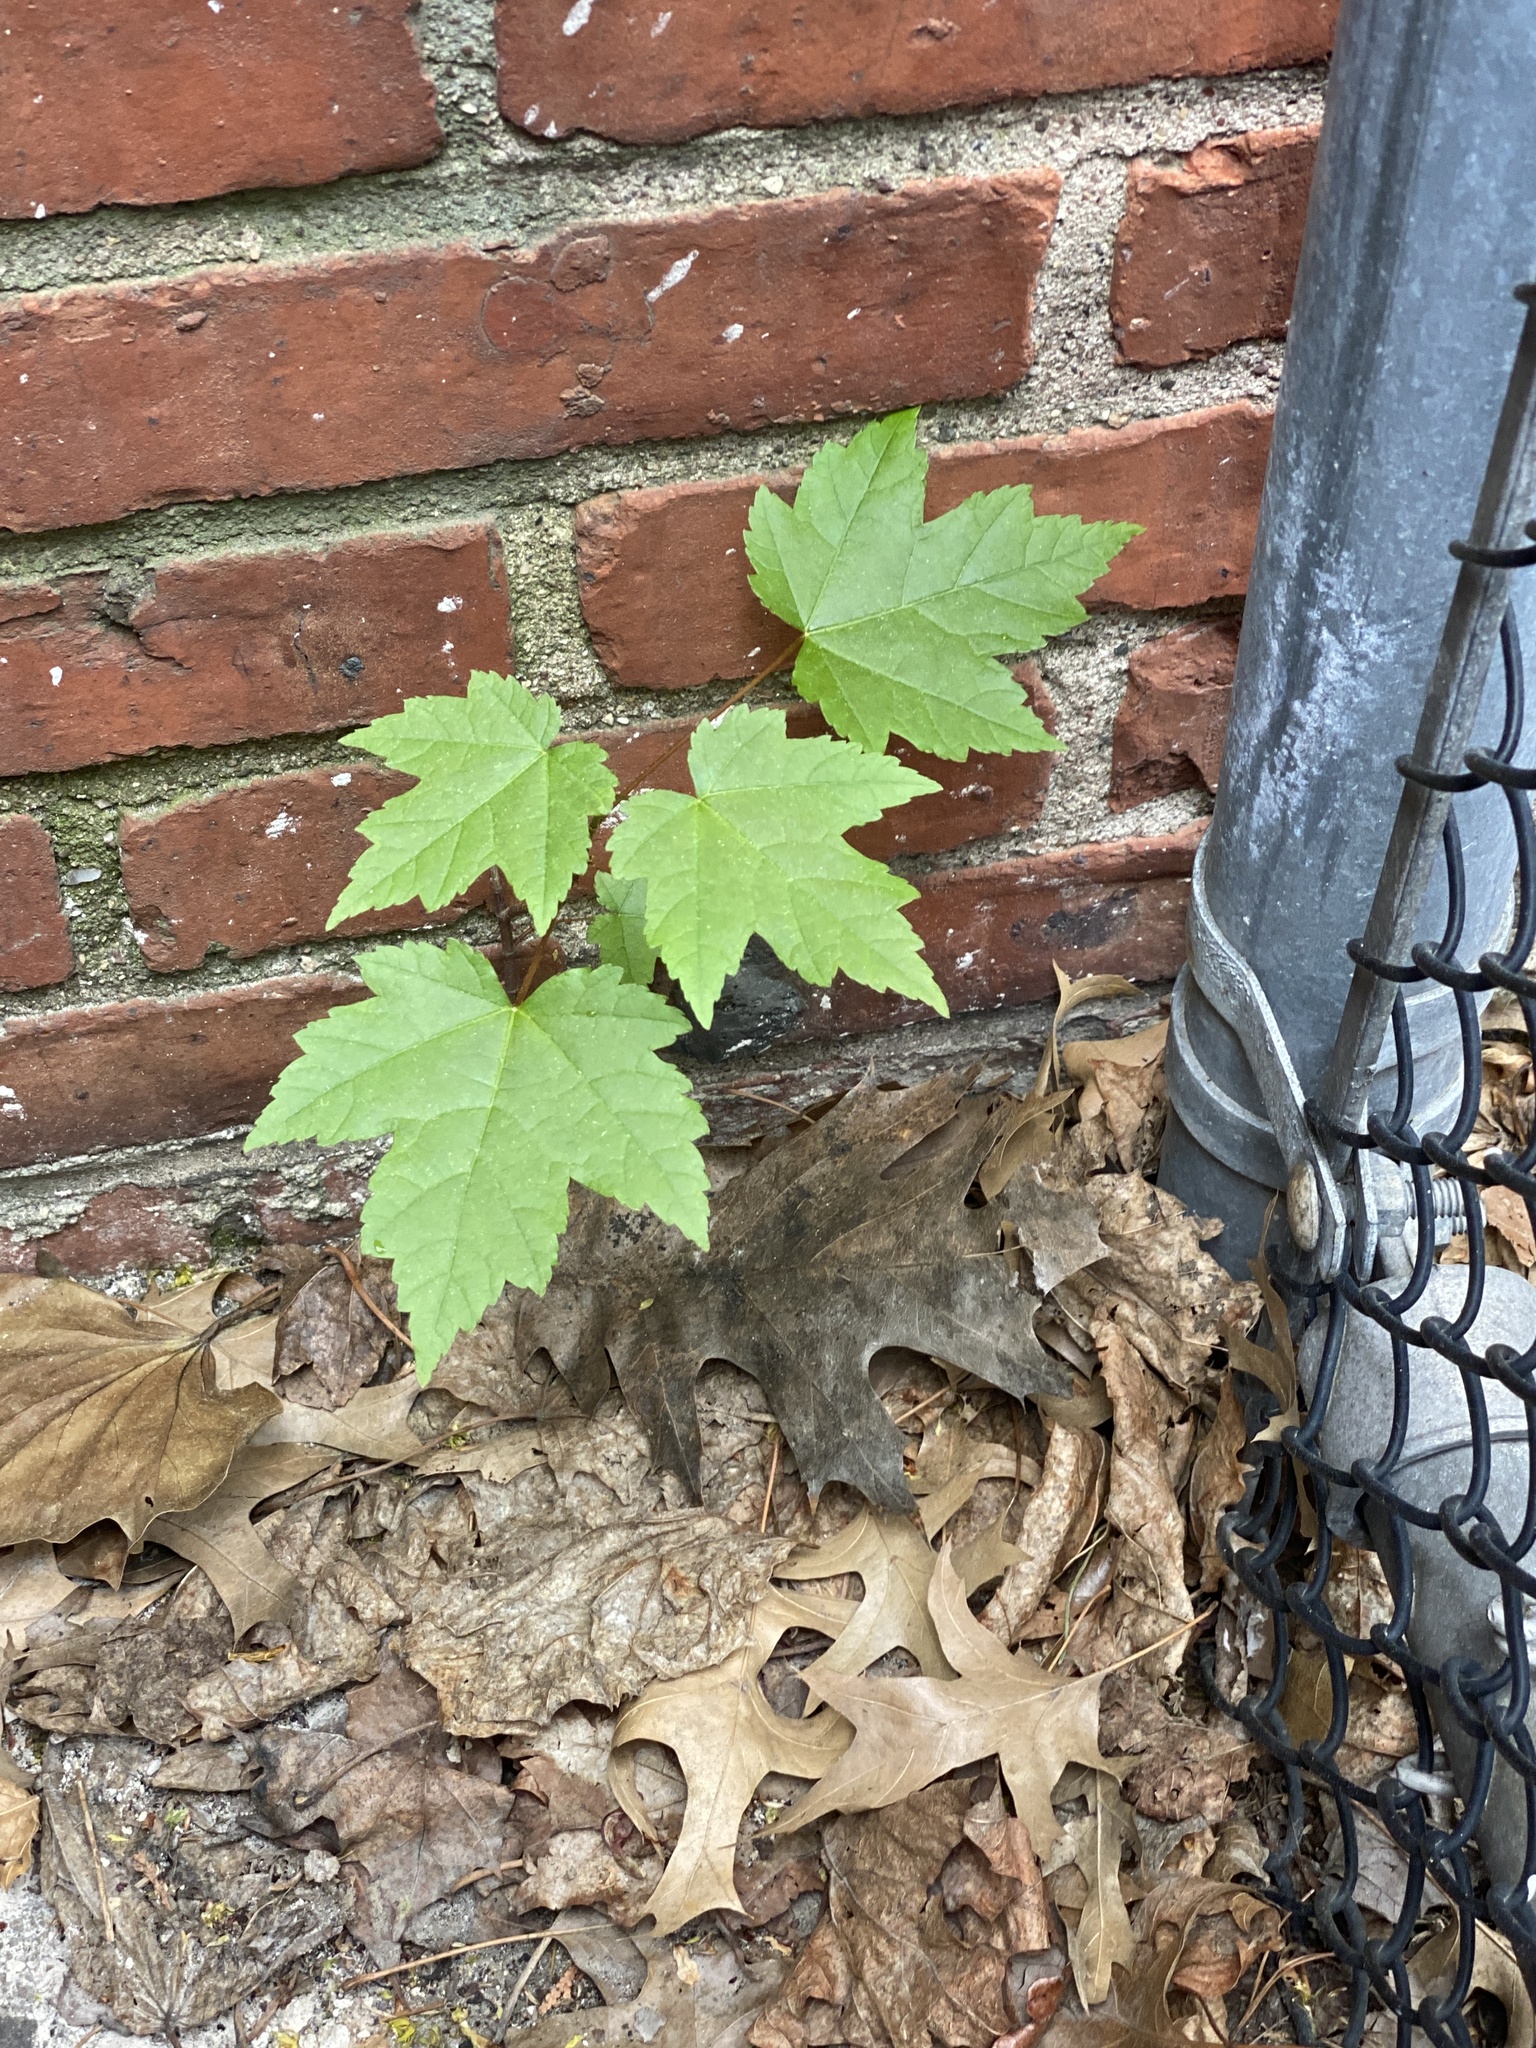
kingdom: Plantae
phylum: Tracheophyta
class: Magnoliopsida
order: Sapindales
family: Sapindaceae
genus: Acer
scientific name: Acer rubrum
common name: Red maple
